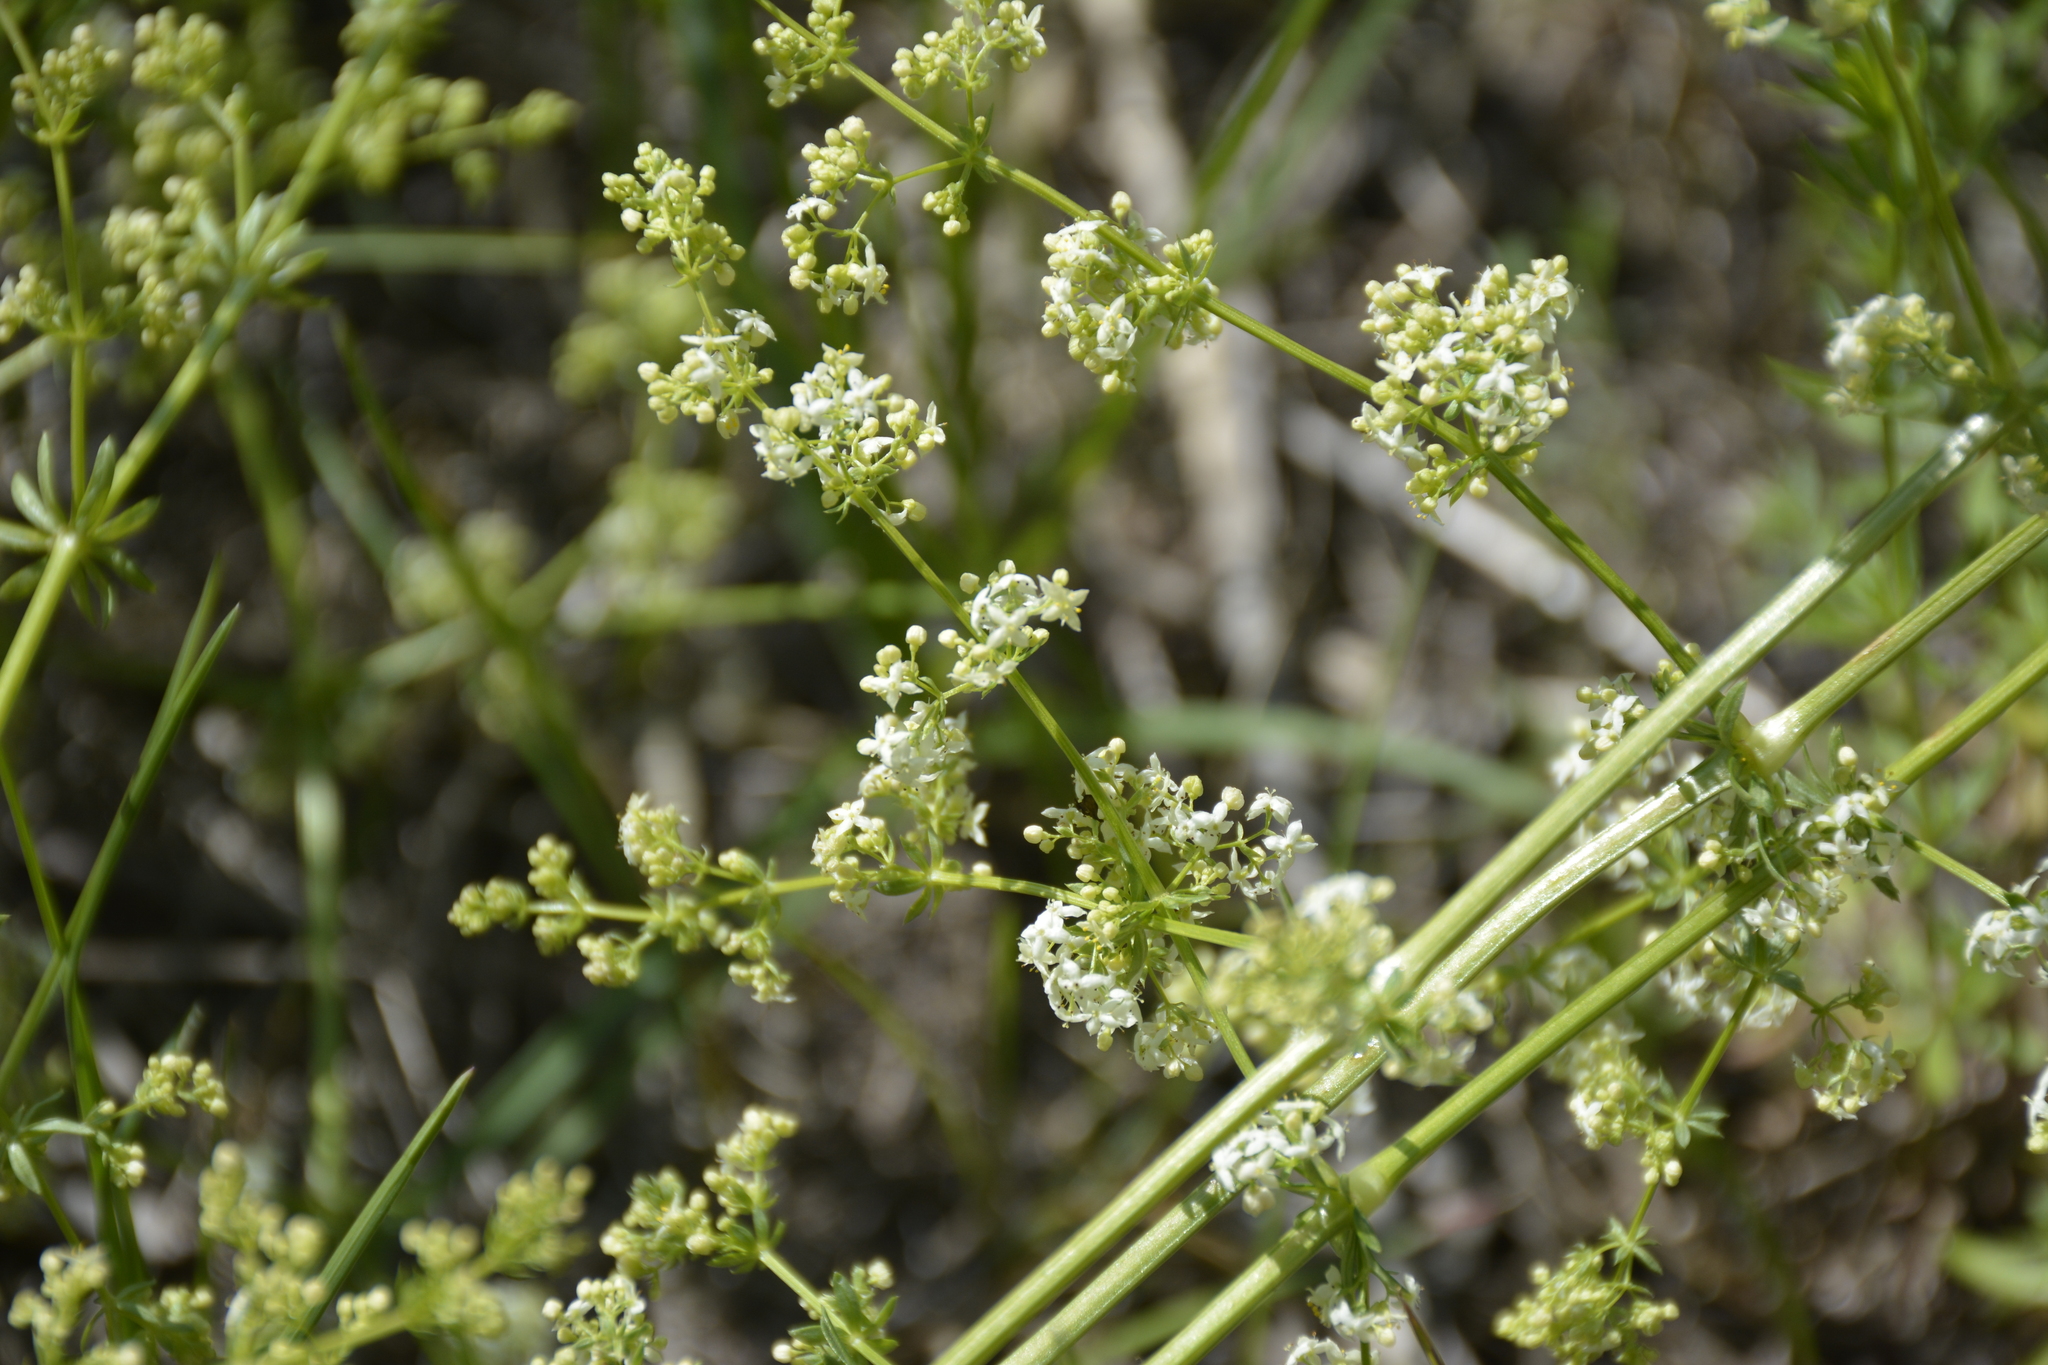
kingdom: Plantae
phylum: Tracheophyta
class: Magnoliopsida
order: Gentianales
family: Rubiaceae
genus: Galium
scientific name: Galium mollugo
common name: Hedge bedstraw
